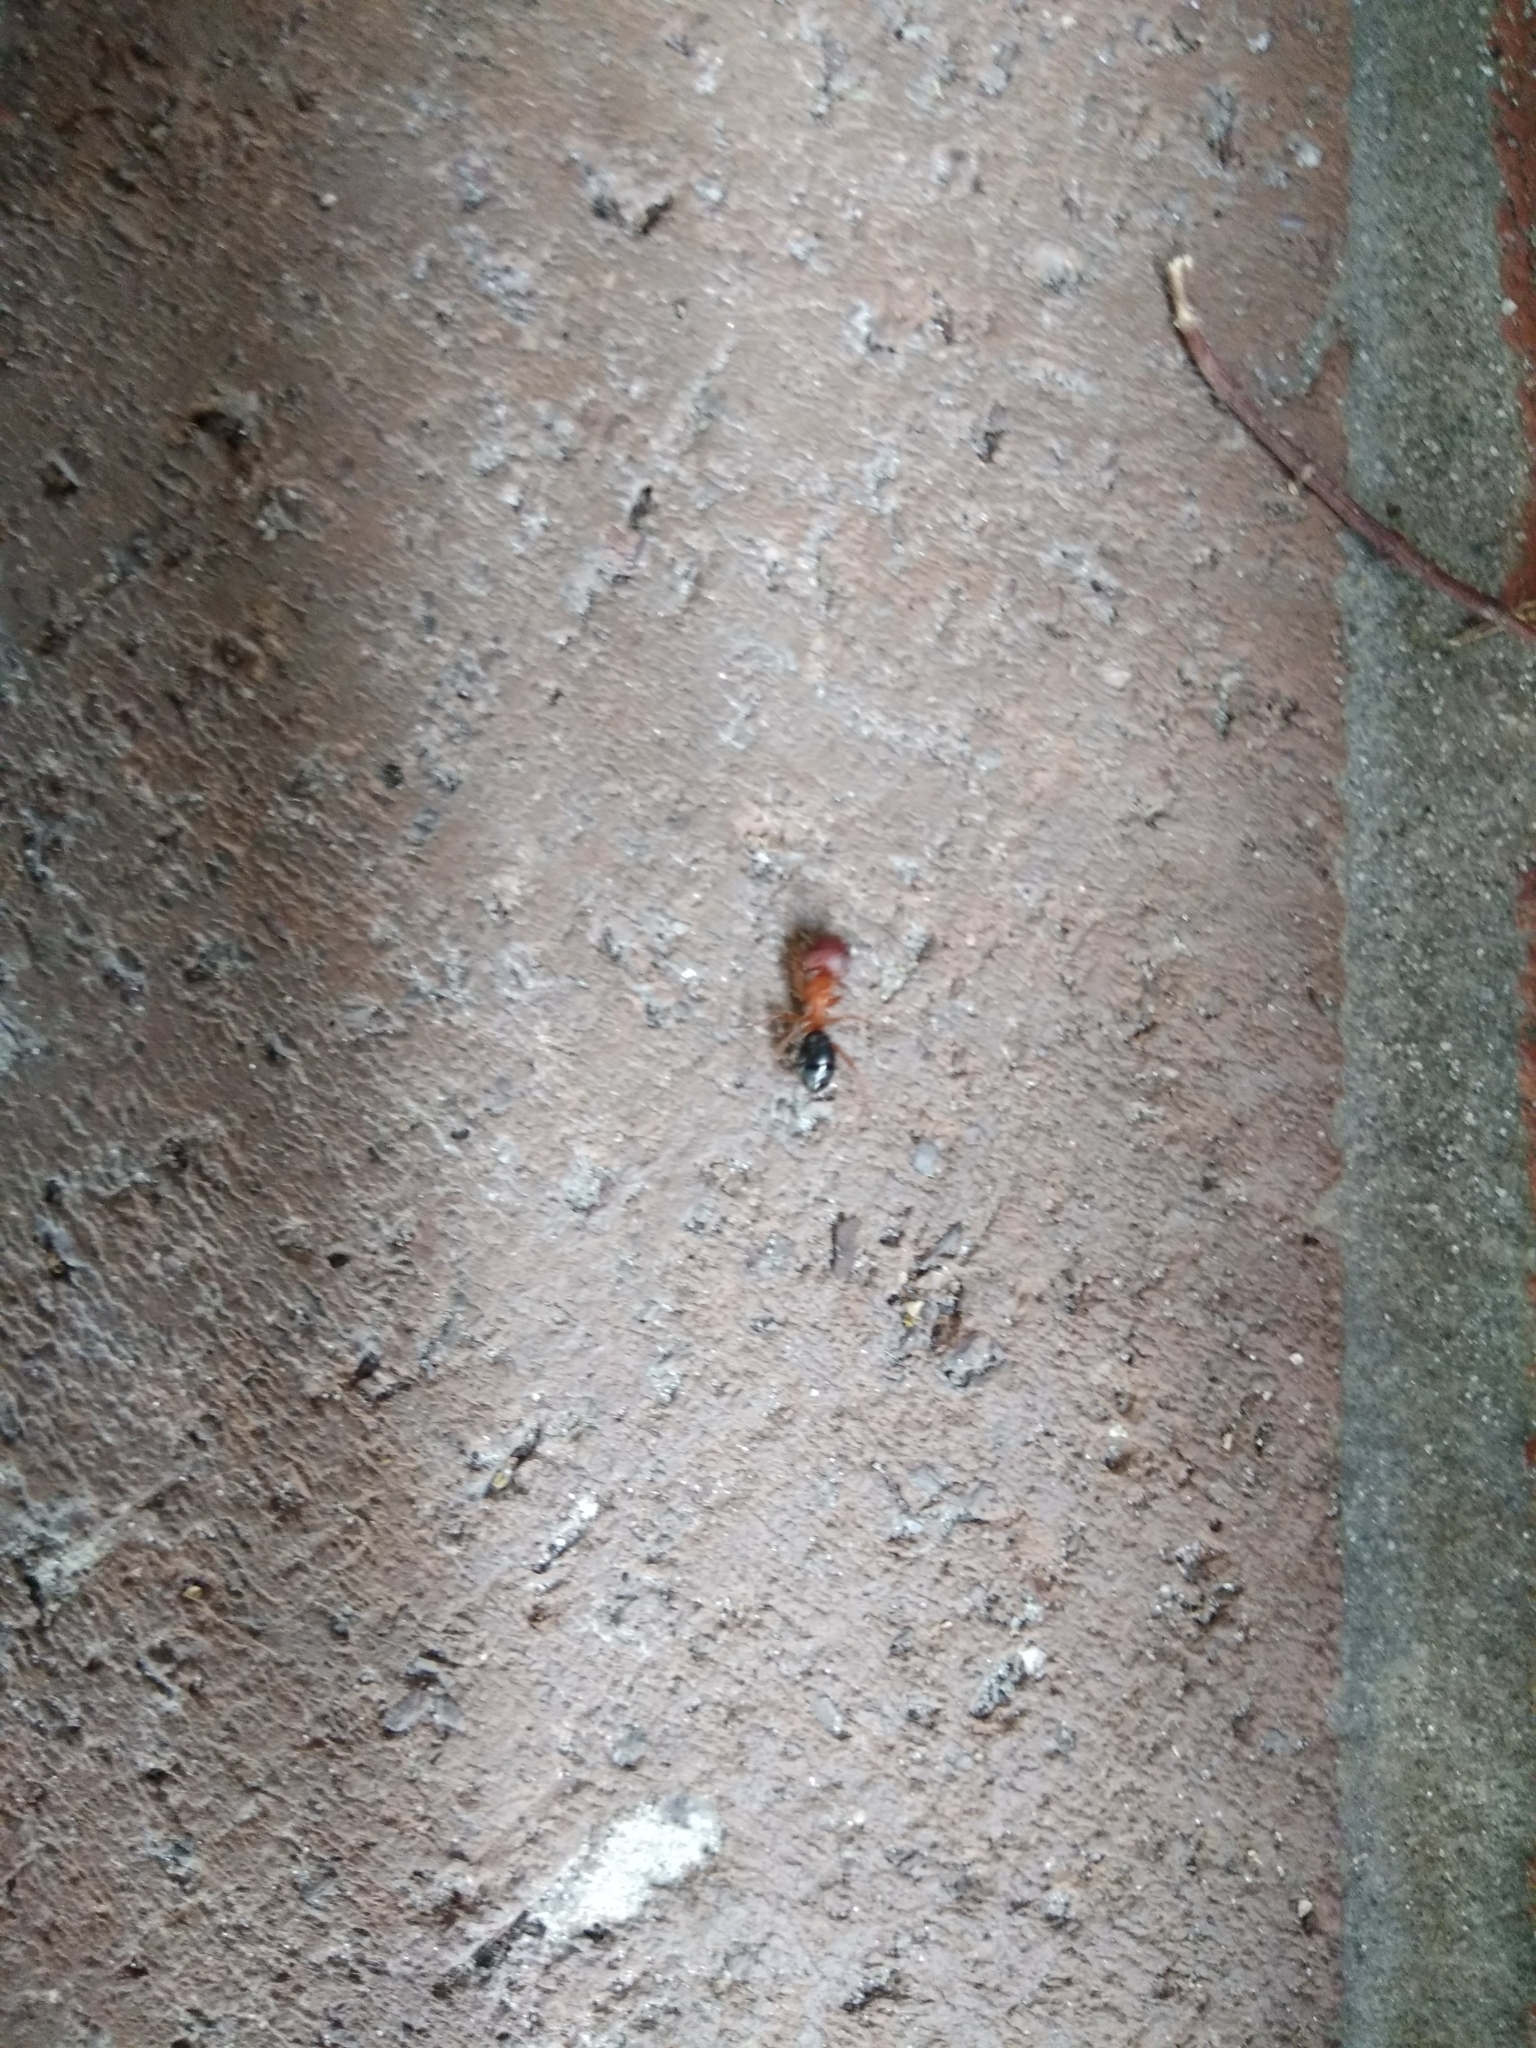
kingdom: Animalia
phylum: Arthropoda
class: Insecta
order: Hymenoptera
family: Formicidae
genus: Camponotus
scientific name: Camponotus floridanus
